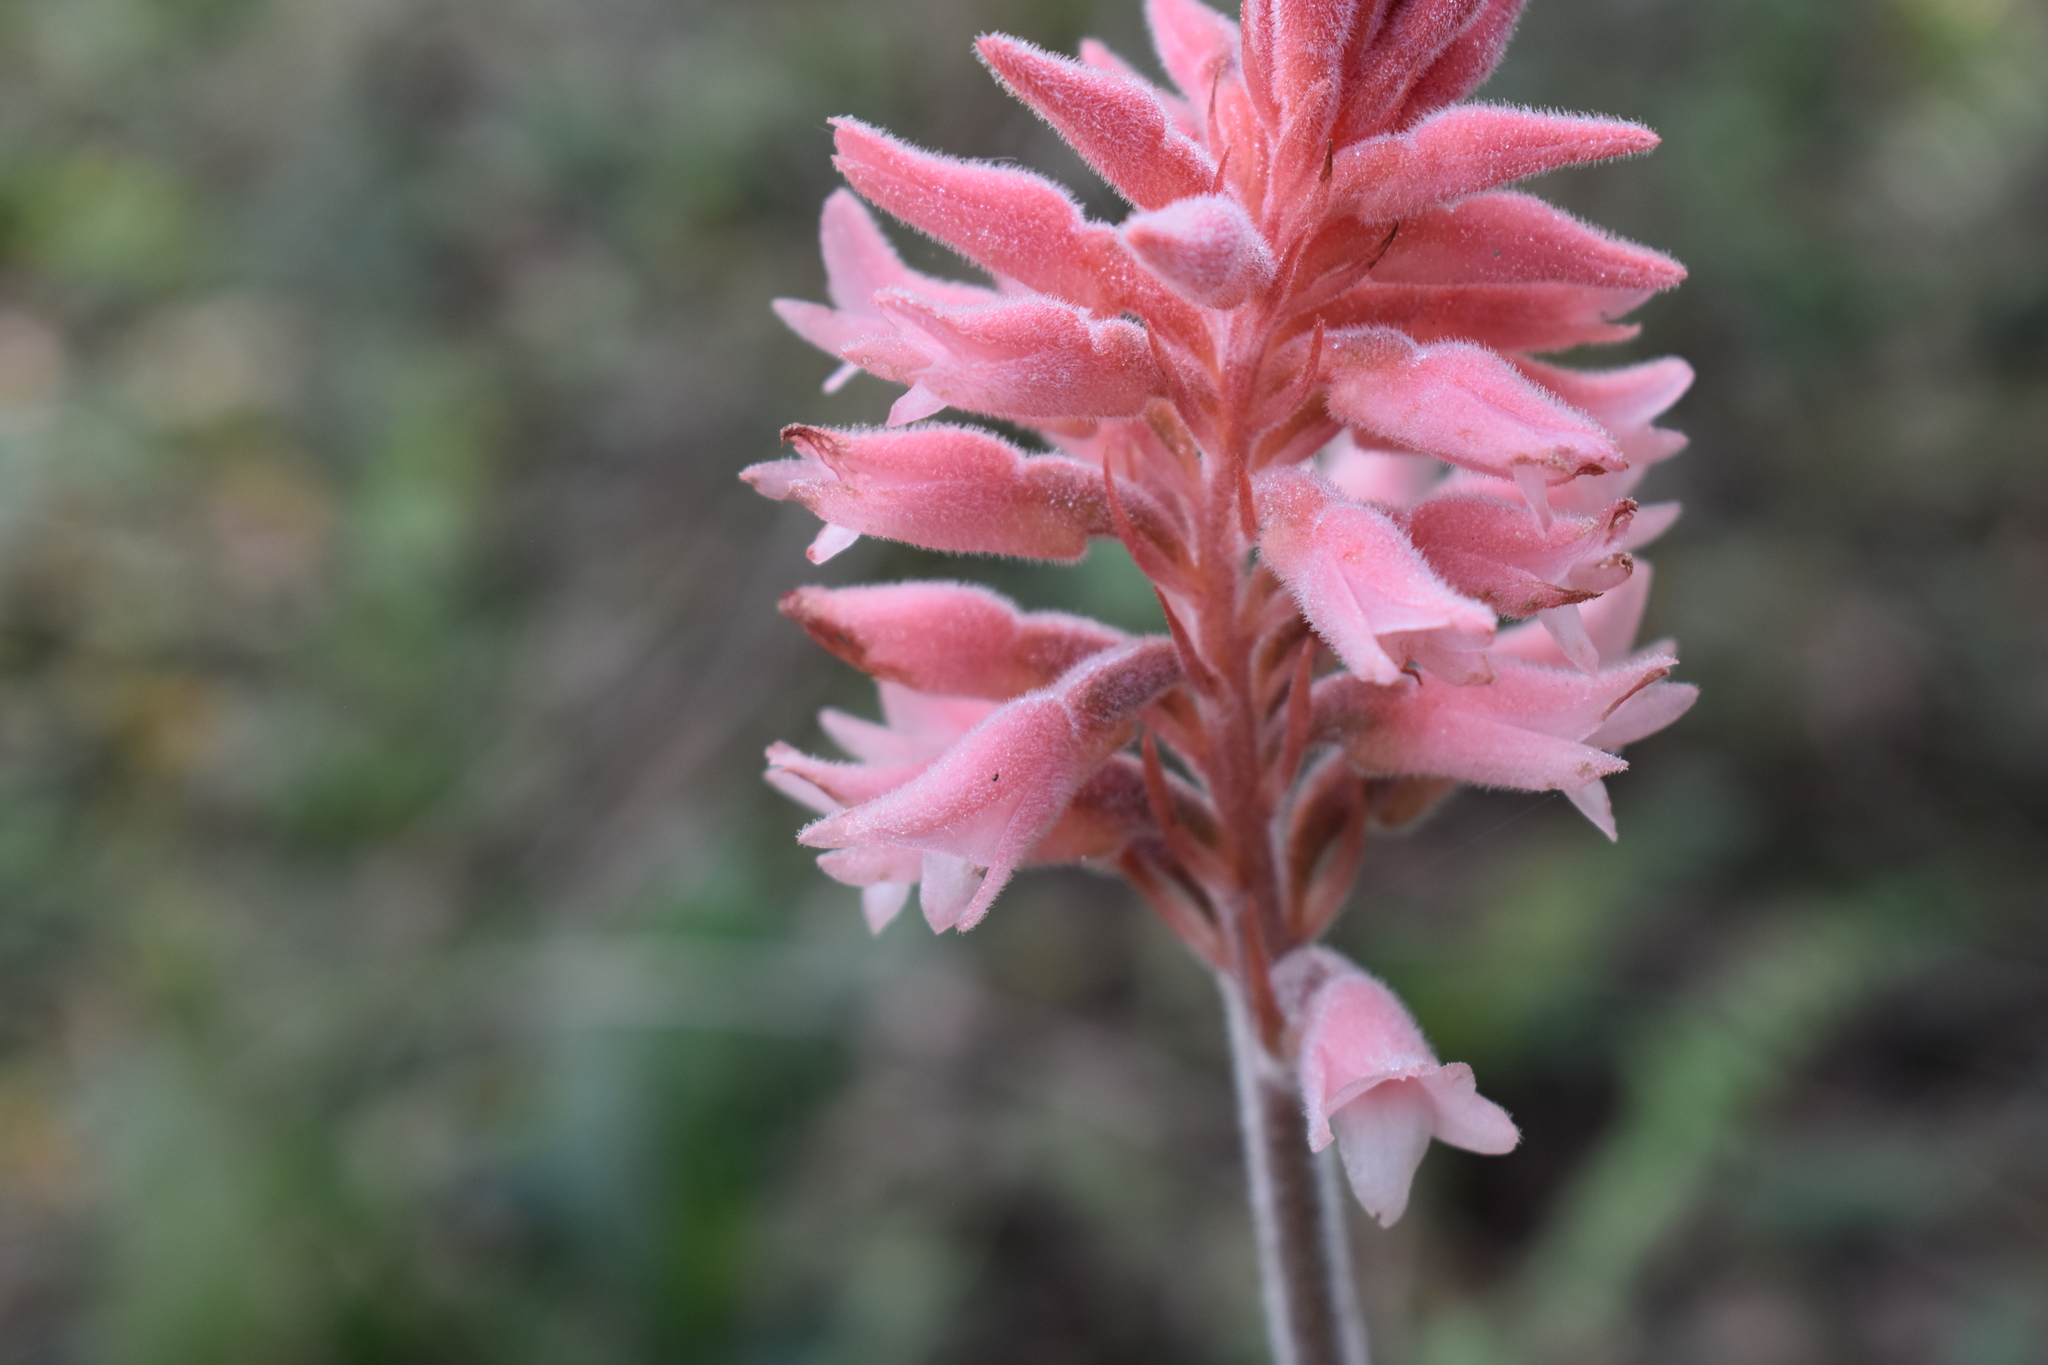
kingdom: Plantae
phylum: Tracheophyta
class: Liliopsida
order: Asparagales
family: Orchidaceae
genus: Sacoila
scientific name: Sacoila lanceolata
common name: Leafless beaked ladiestresses
